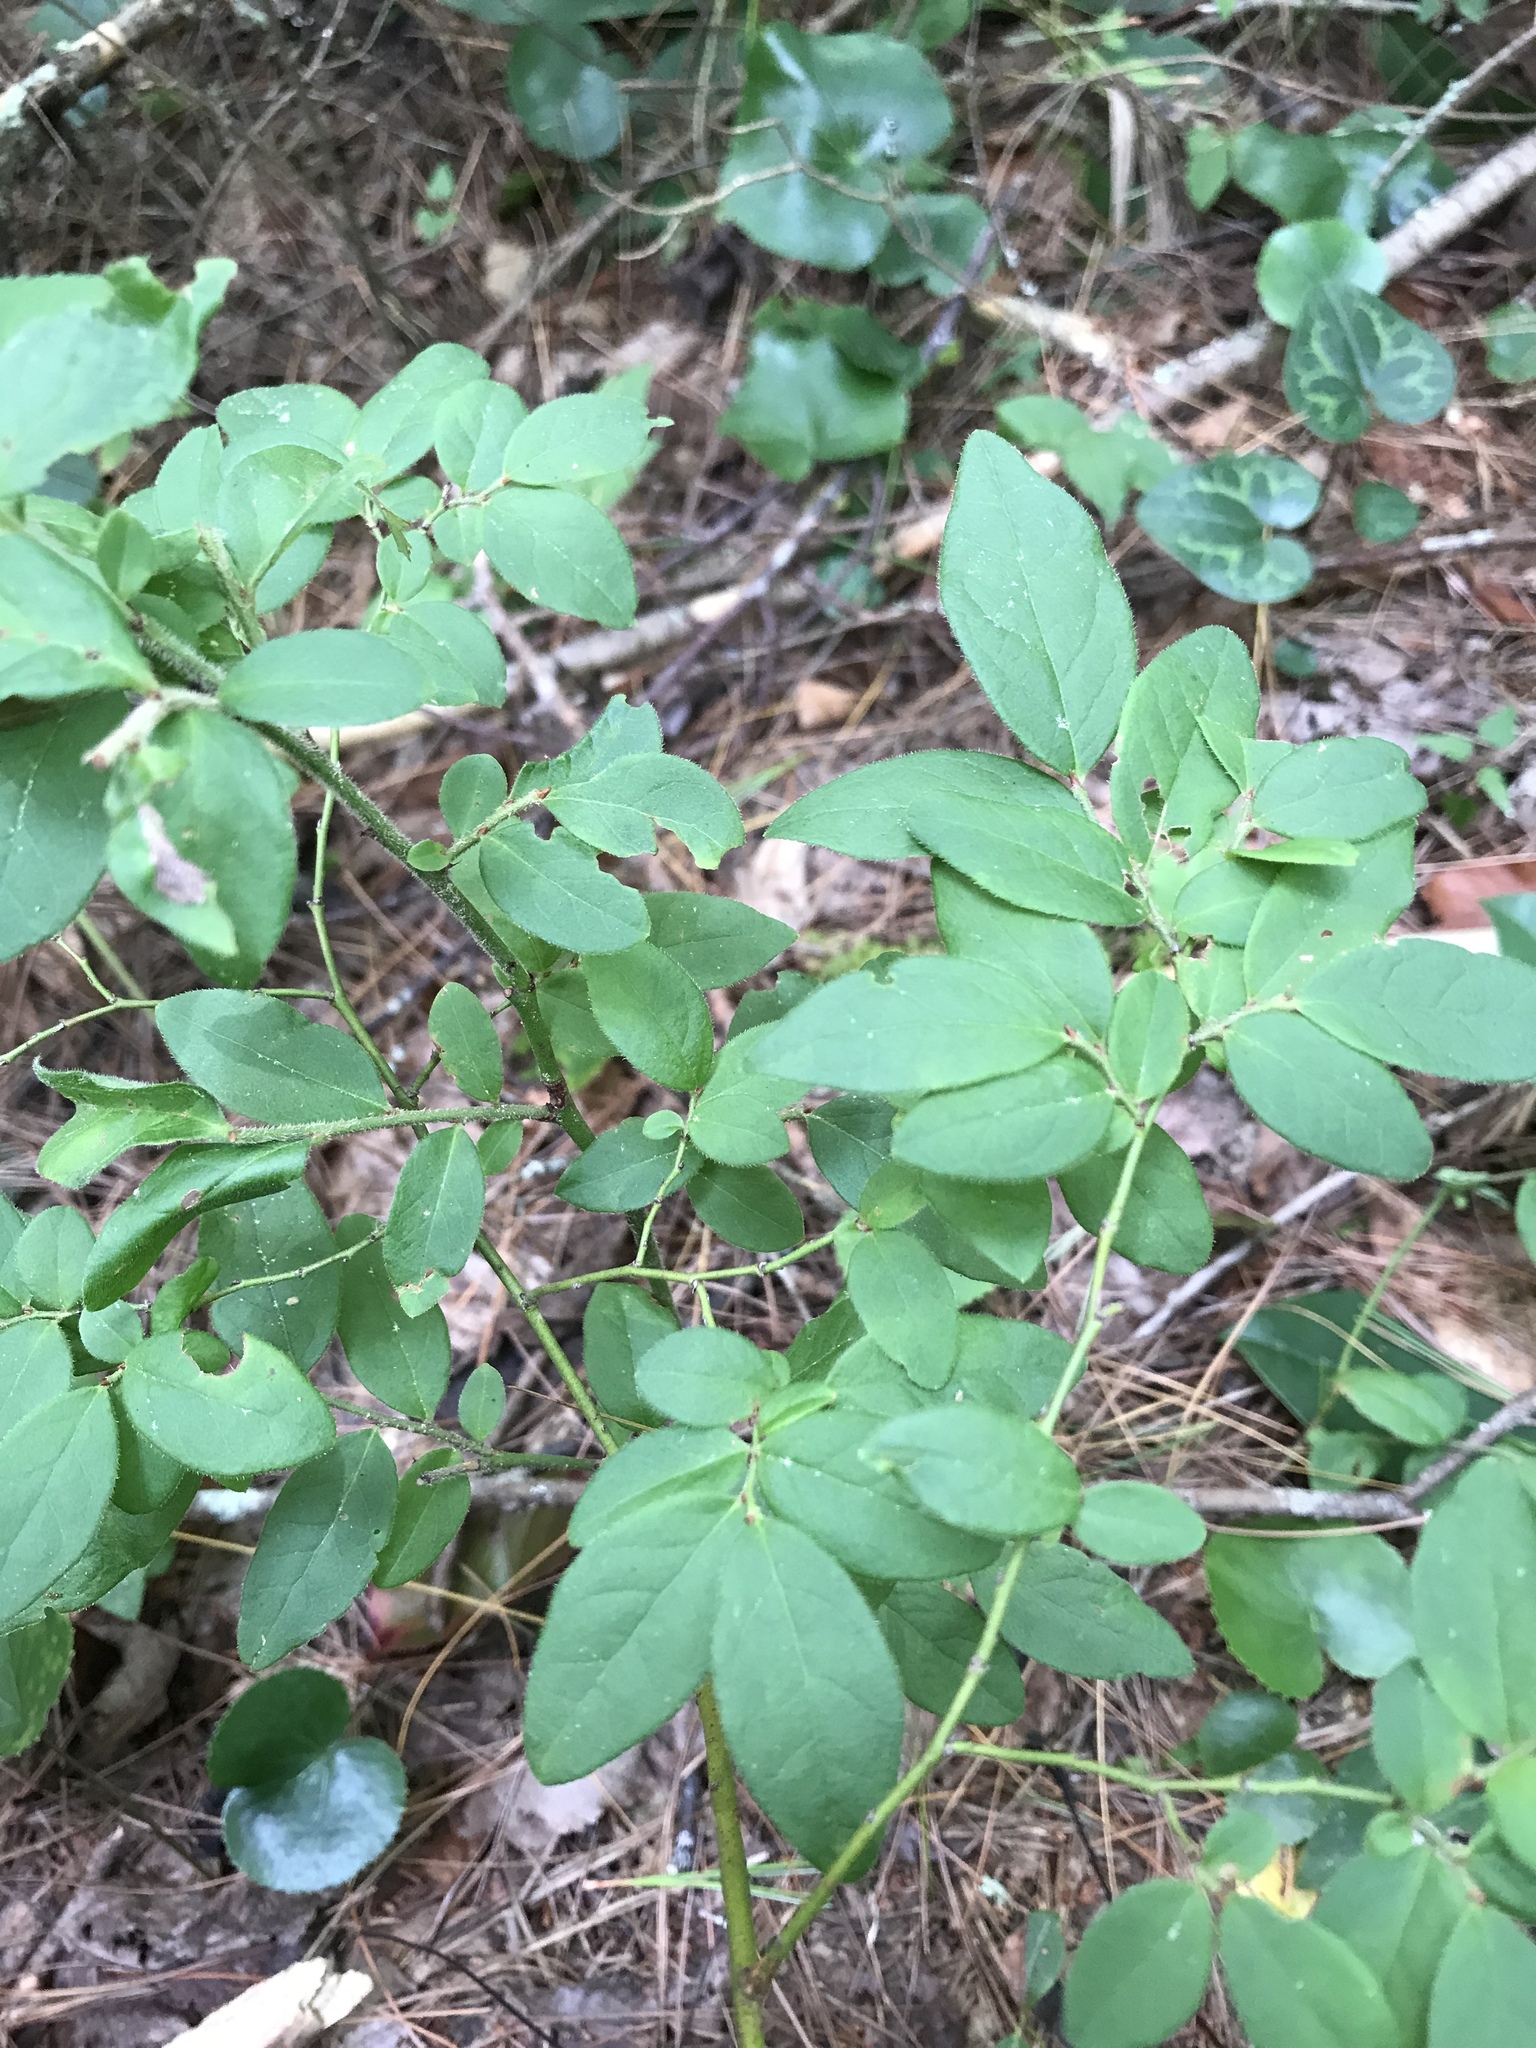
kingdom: Plantae
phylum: Tracheophyta
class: Magnoliopsida
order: Ericales
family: Ericaceae
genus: Vaccinium
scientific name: Vaccinium hirsutum
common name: Woolly-berry
